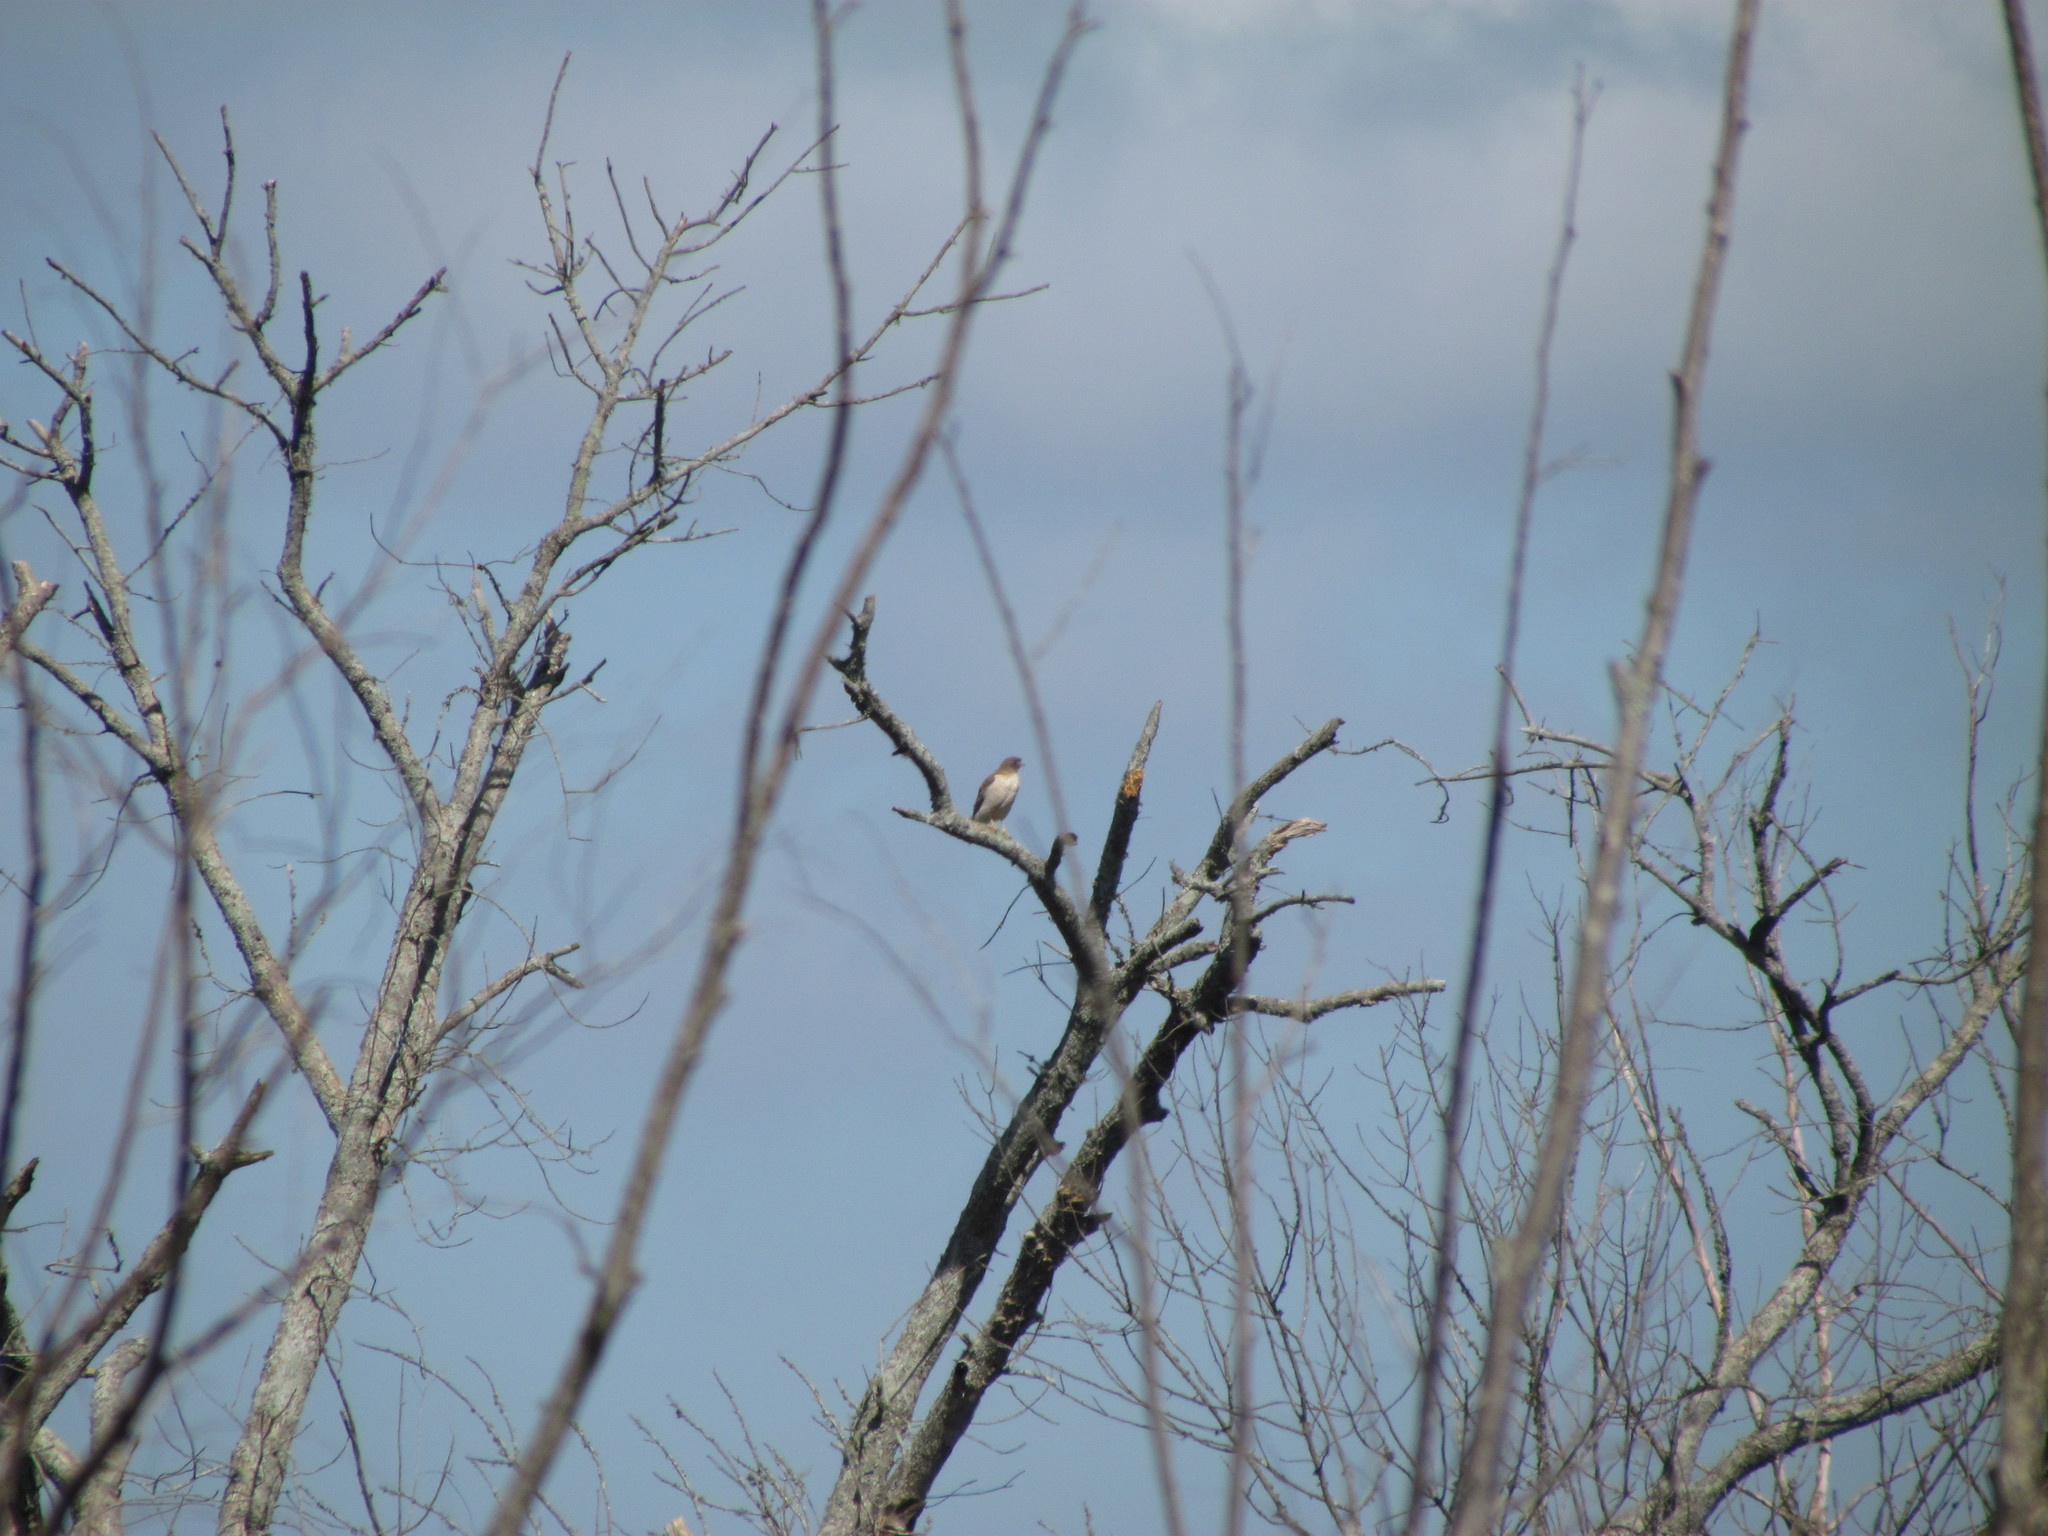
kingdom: Animalia
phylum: Chordata
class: Aves
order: Accipitriformes
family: Accipitridae
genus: Rupornis
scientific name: Rupornis magnirostris
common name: Roadside hawk
